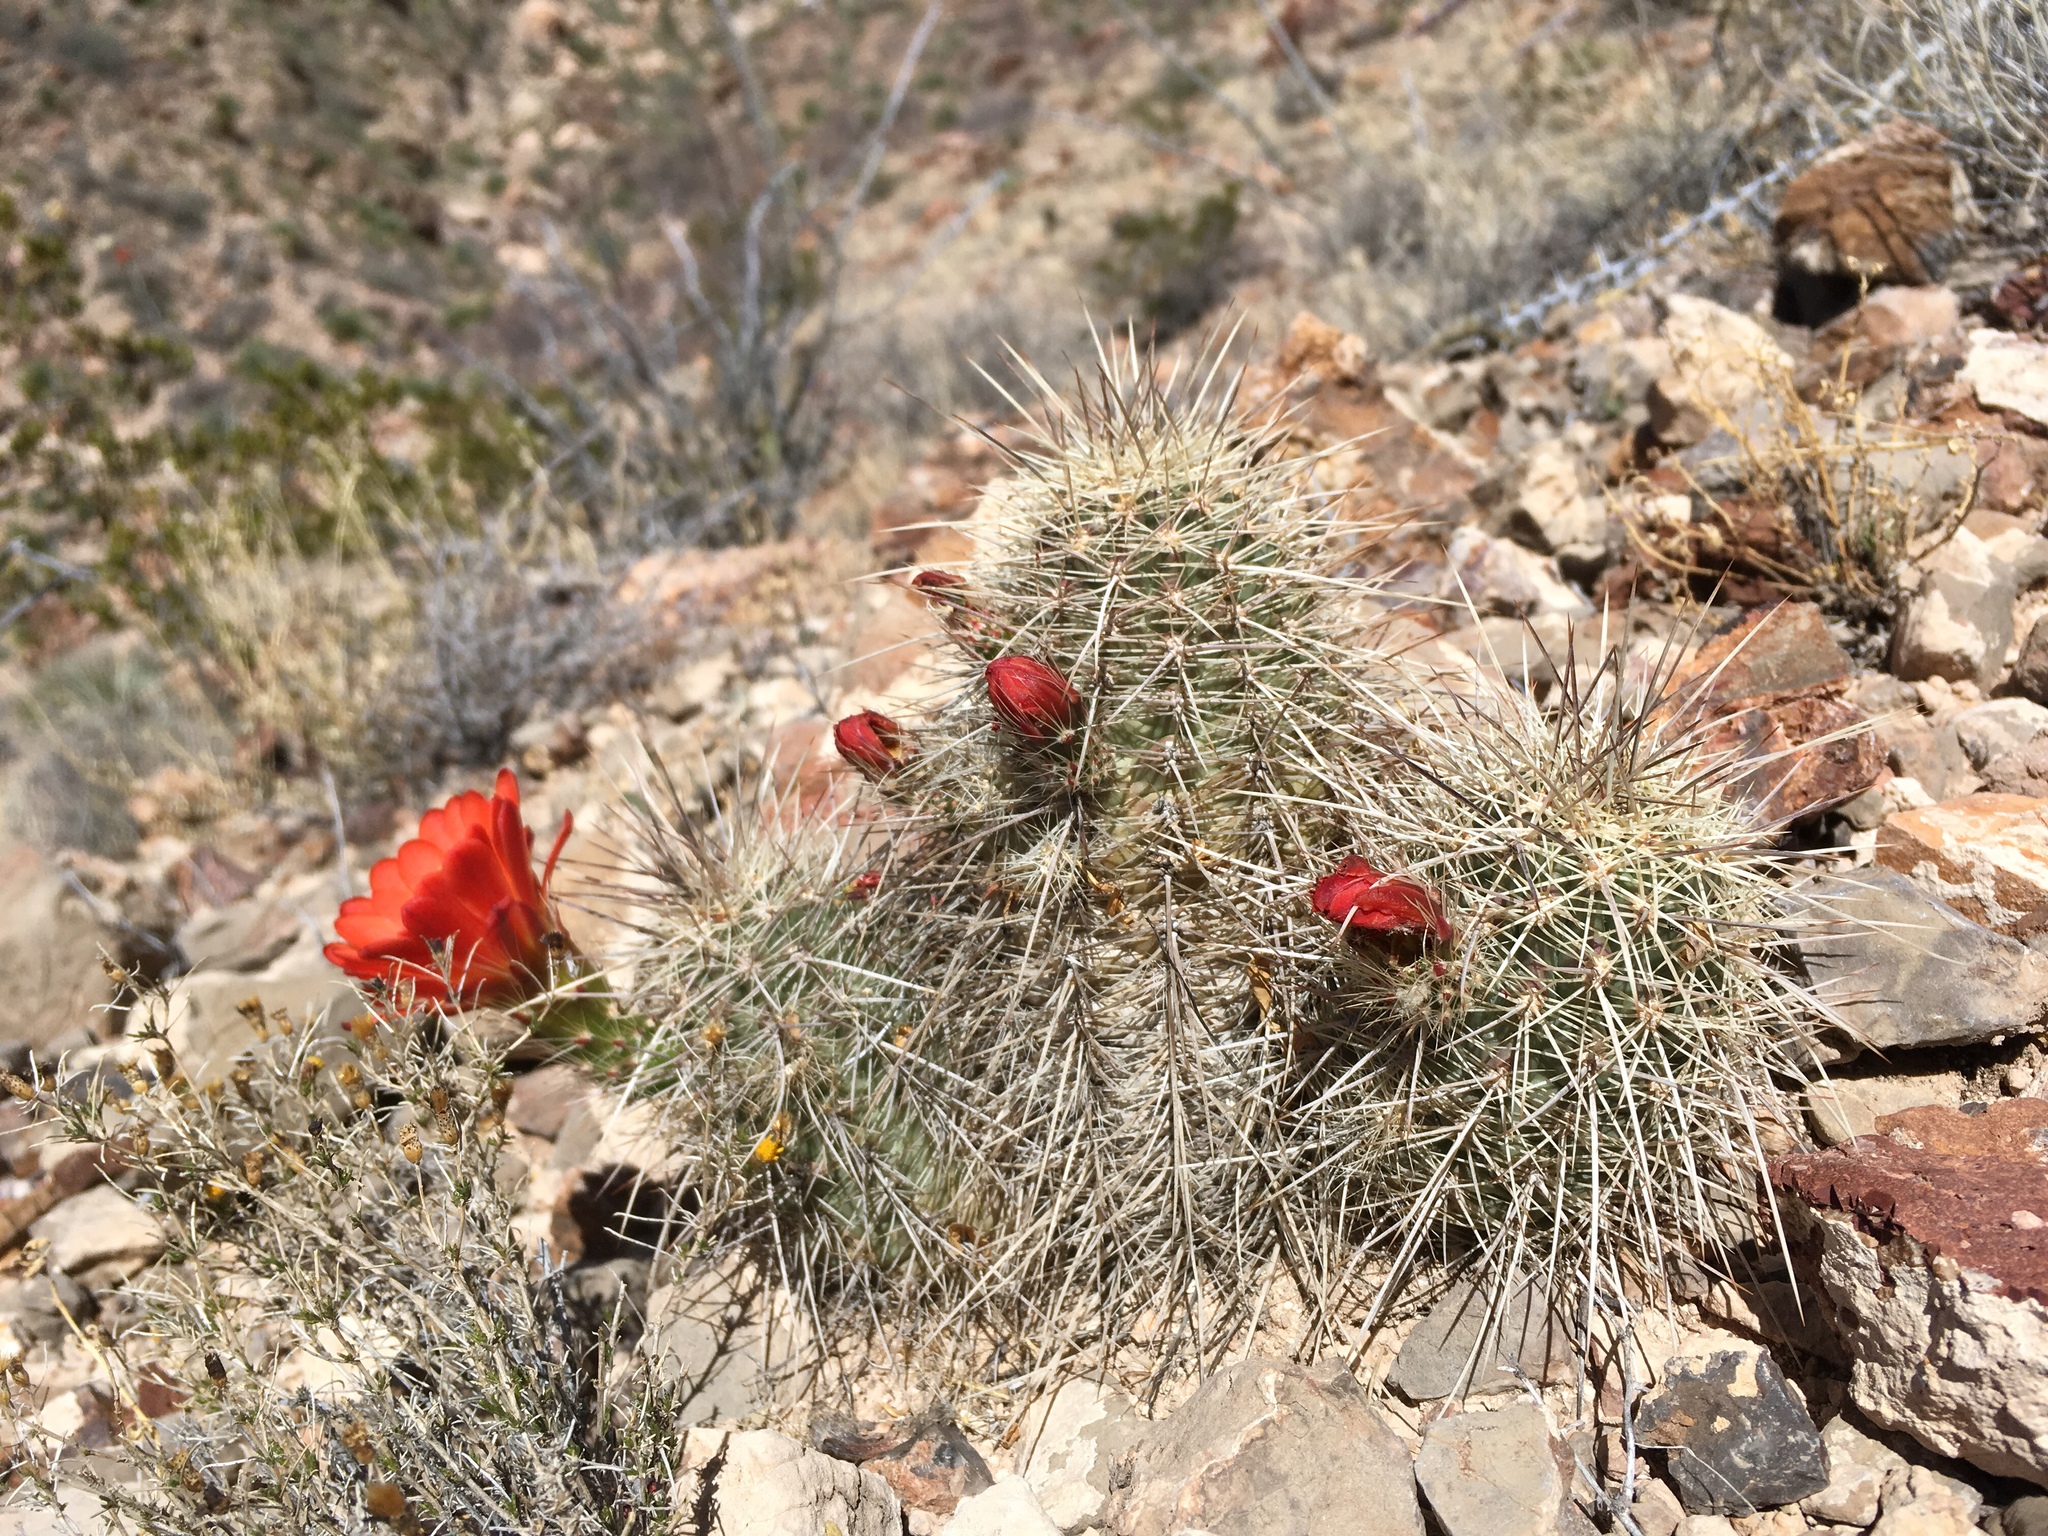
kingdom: Plantae
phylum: Tracheophyta
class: Magnoliopsida
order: Caryophyllales
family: Cactaceae
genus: Echinocereus
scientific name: Echinocereus coccineus
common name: Scarlet hedgehog cactus
